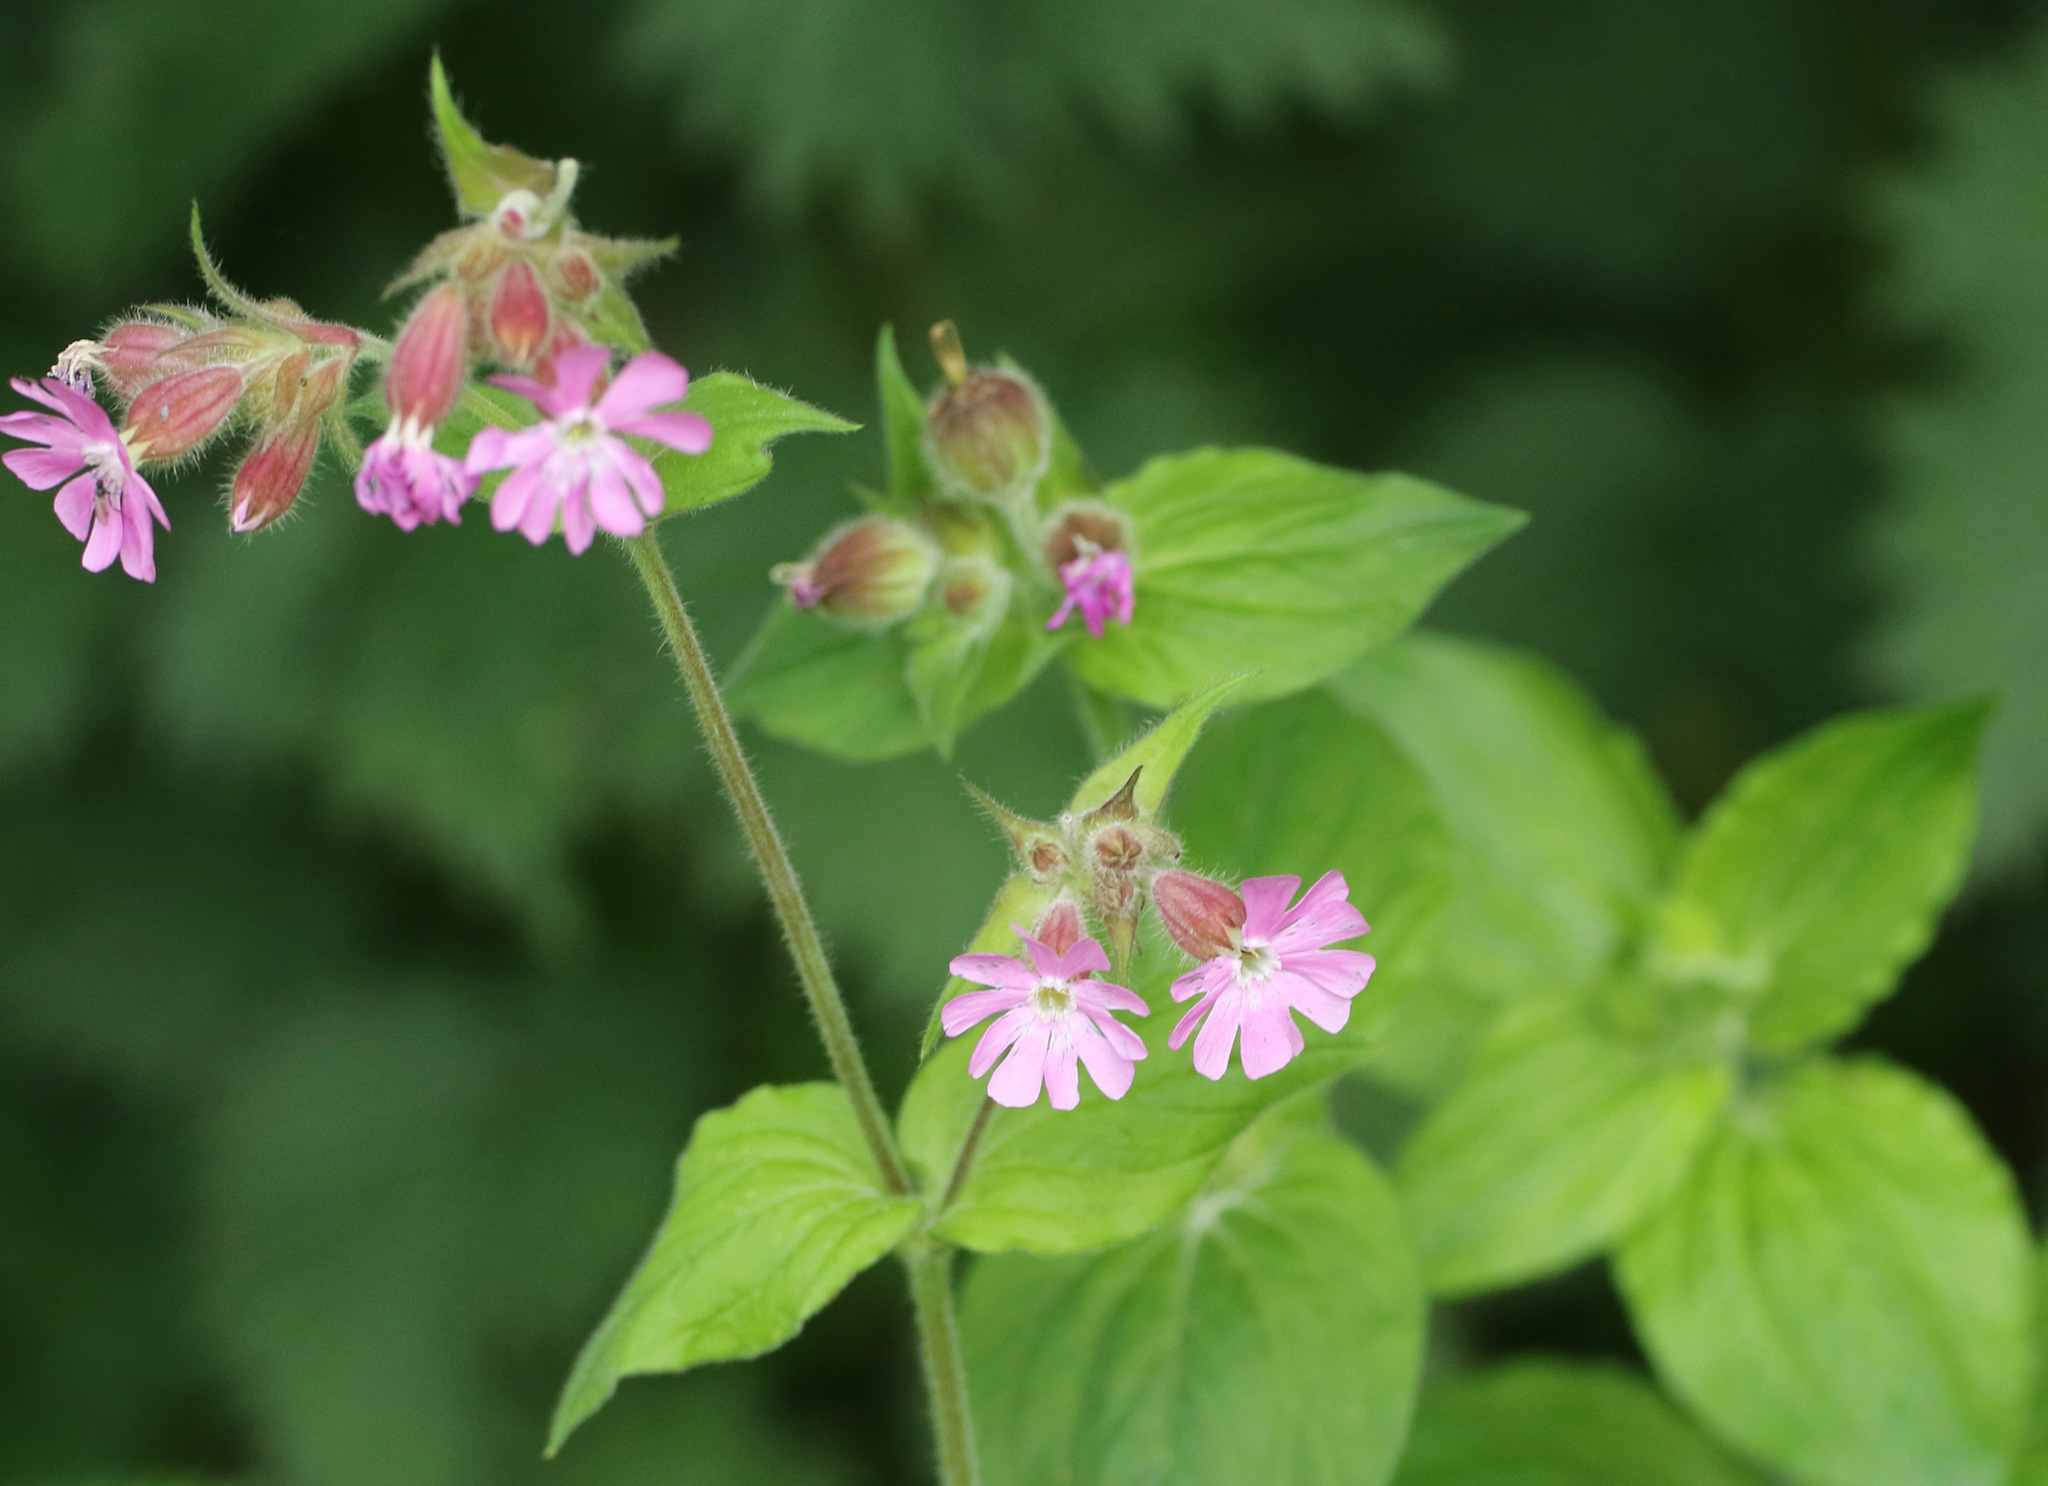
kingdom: Plantae
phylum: Tracheophyta
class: Magnoliopsida
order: Caryophyllales
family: Caryophyllaceae
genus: Silene
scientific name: Silene dioica
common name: Red campion
